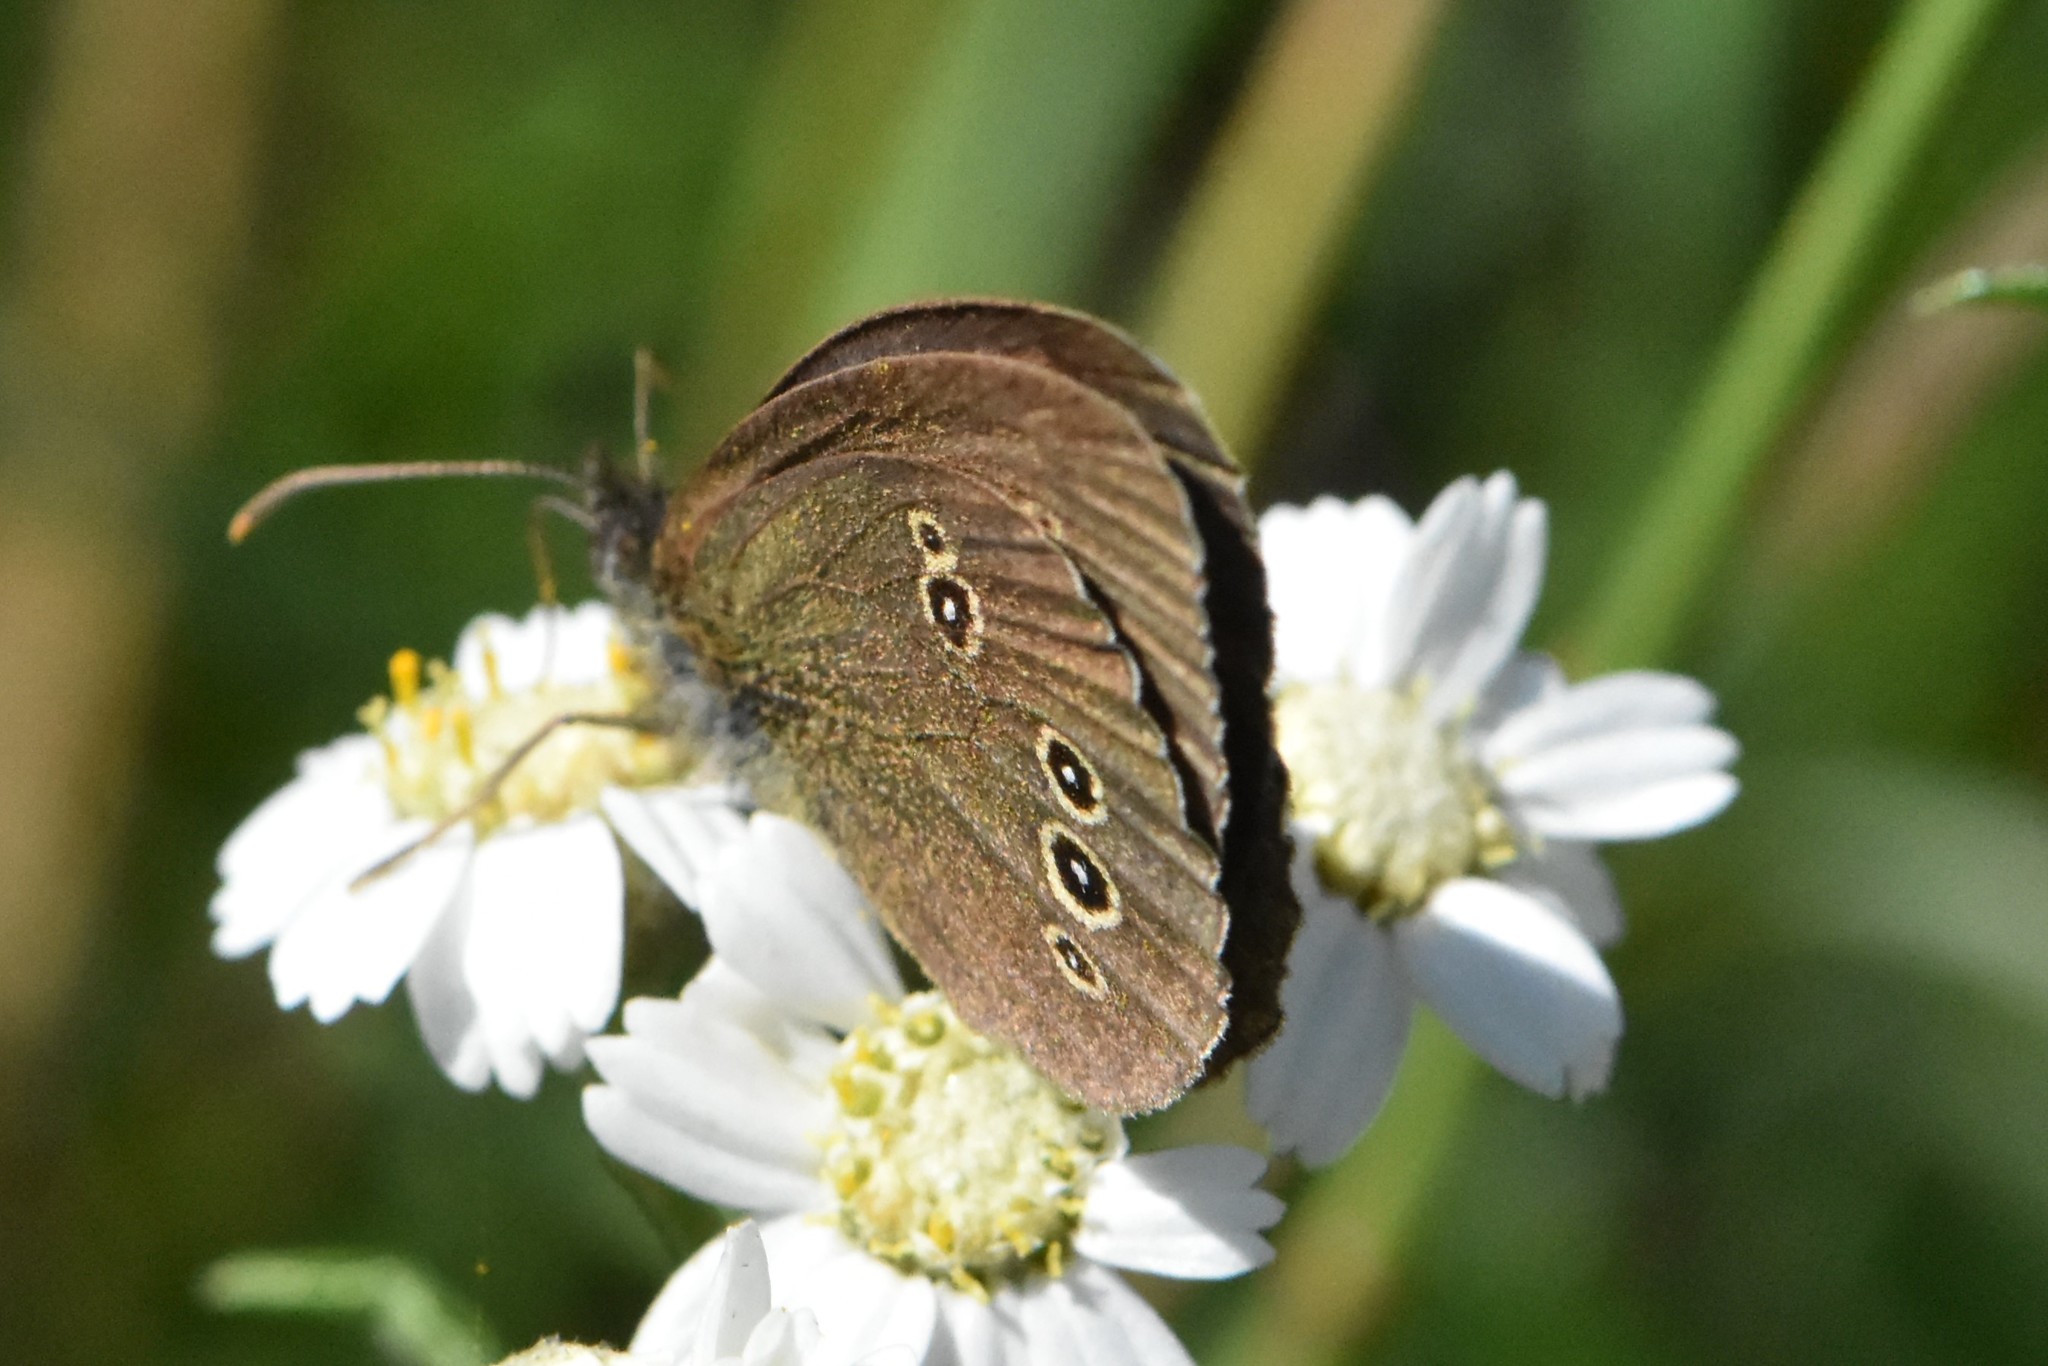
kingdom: Animalia
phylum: Arthropoda
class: Insecta
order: Lepidoptera
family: Nymphalidae
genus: Aphantopus
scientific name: Aphantopus hyperantus
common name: Ringlet
